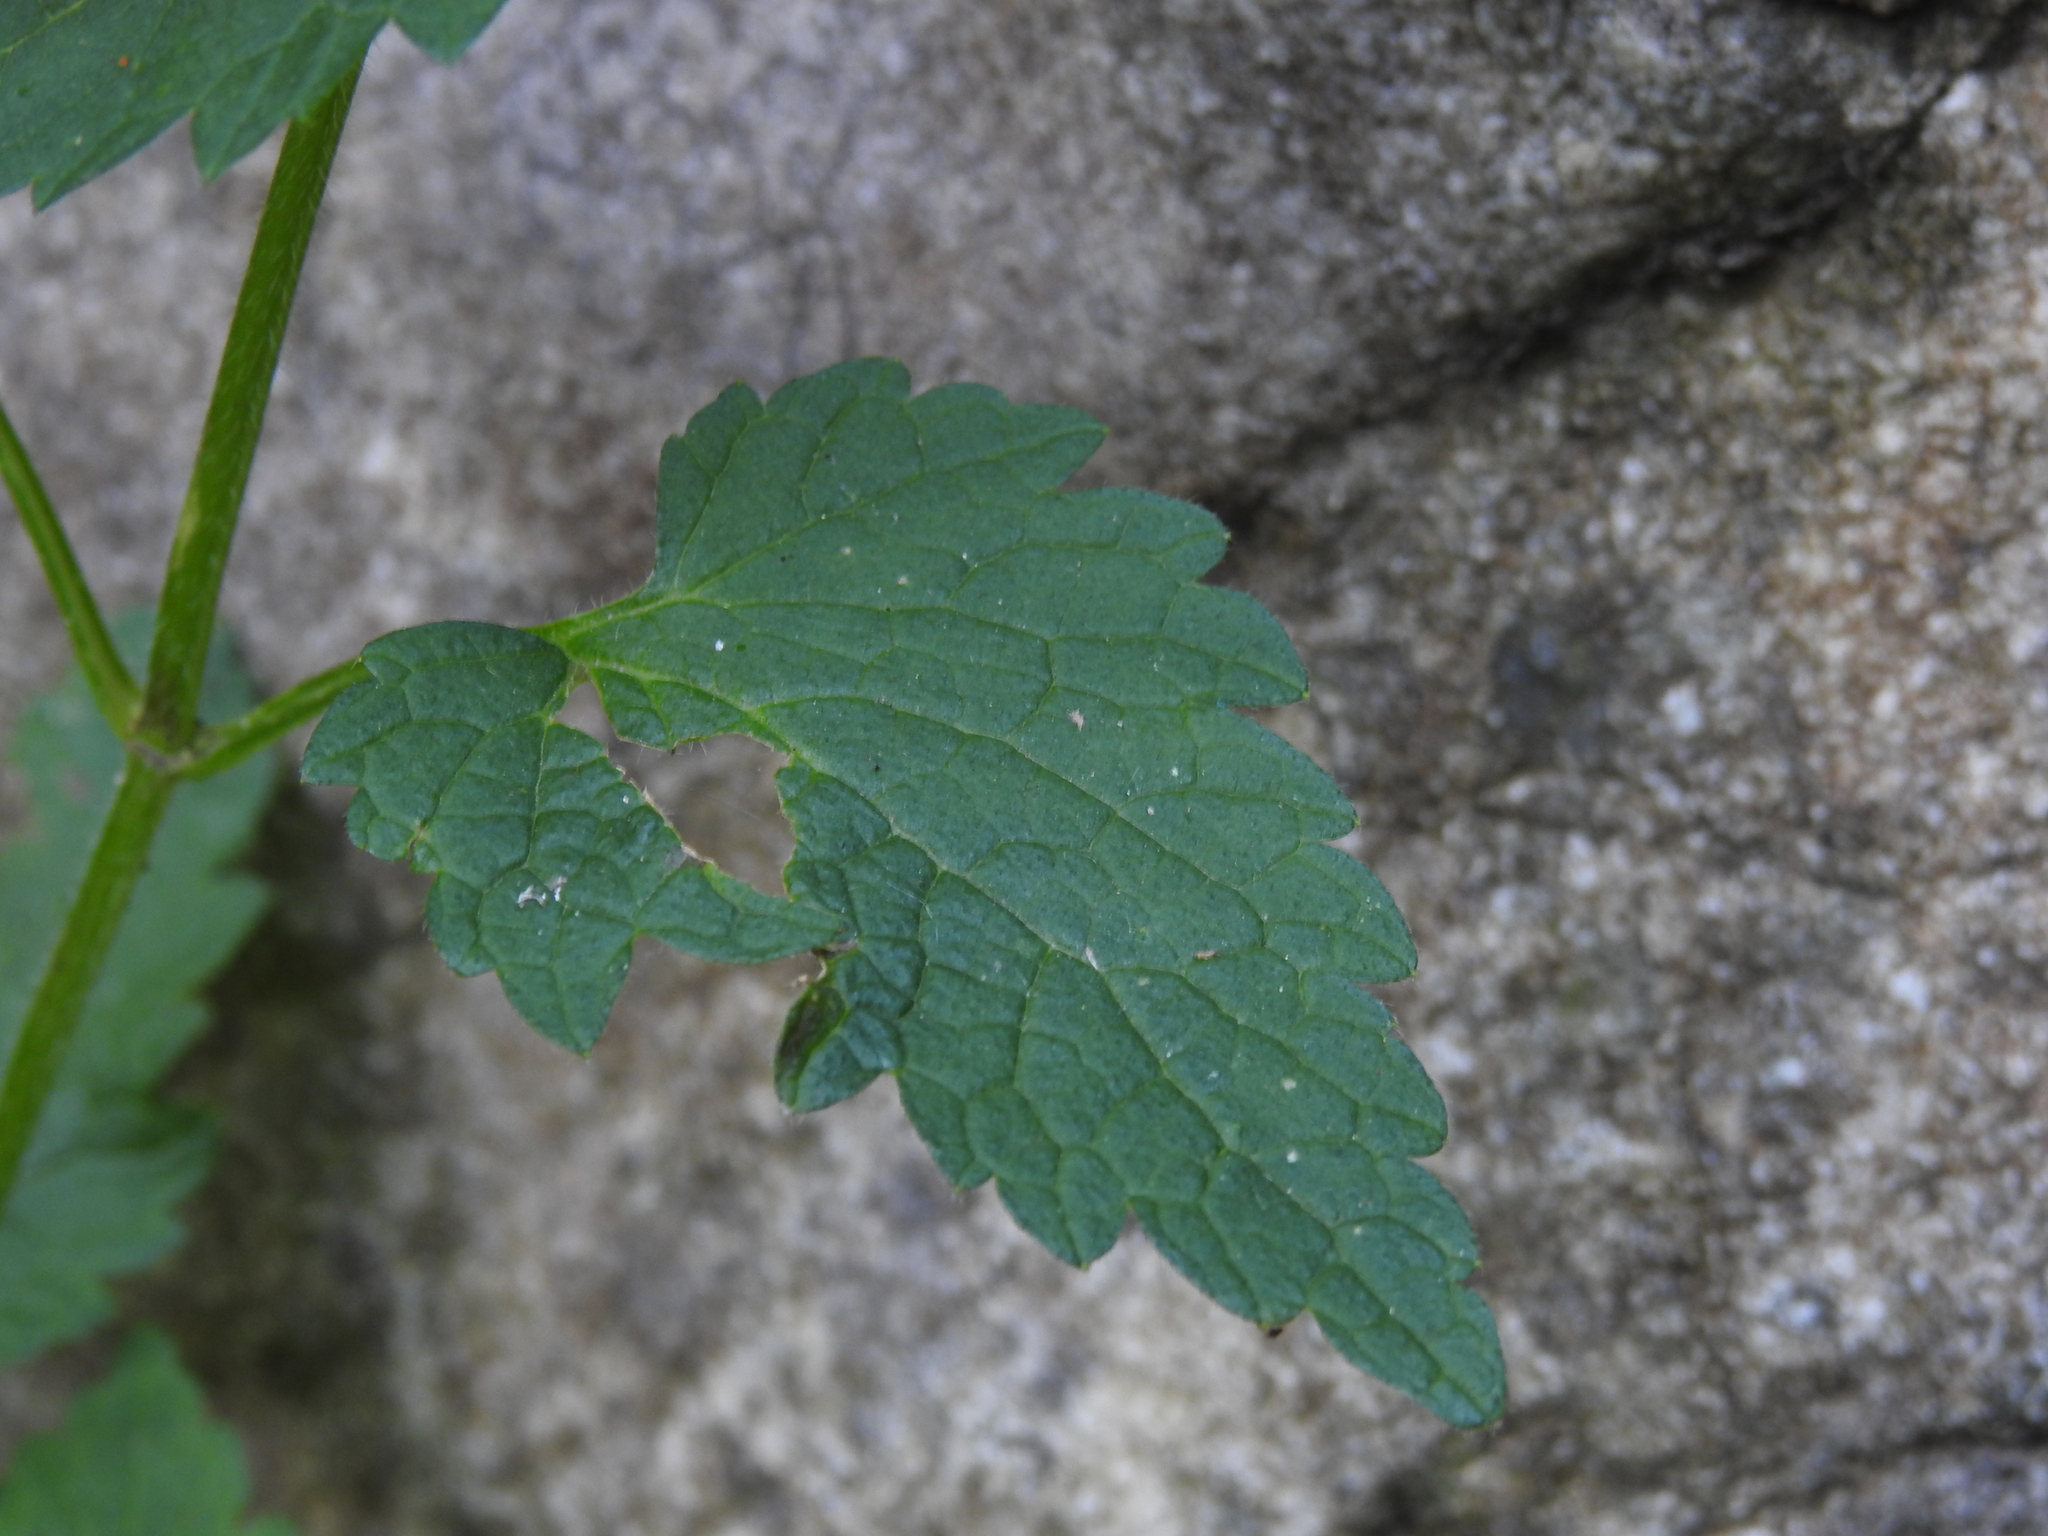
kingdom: Plantae
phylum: Tracheophyta
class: Magnoliopsida
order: Lamiales
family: Lamiaceae
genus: Lamium
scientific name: Lamium maculatum
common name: Spotted dead-nettle
